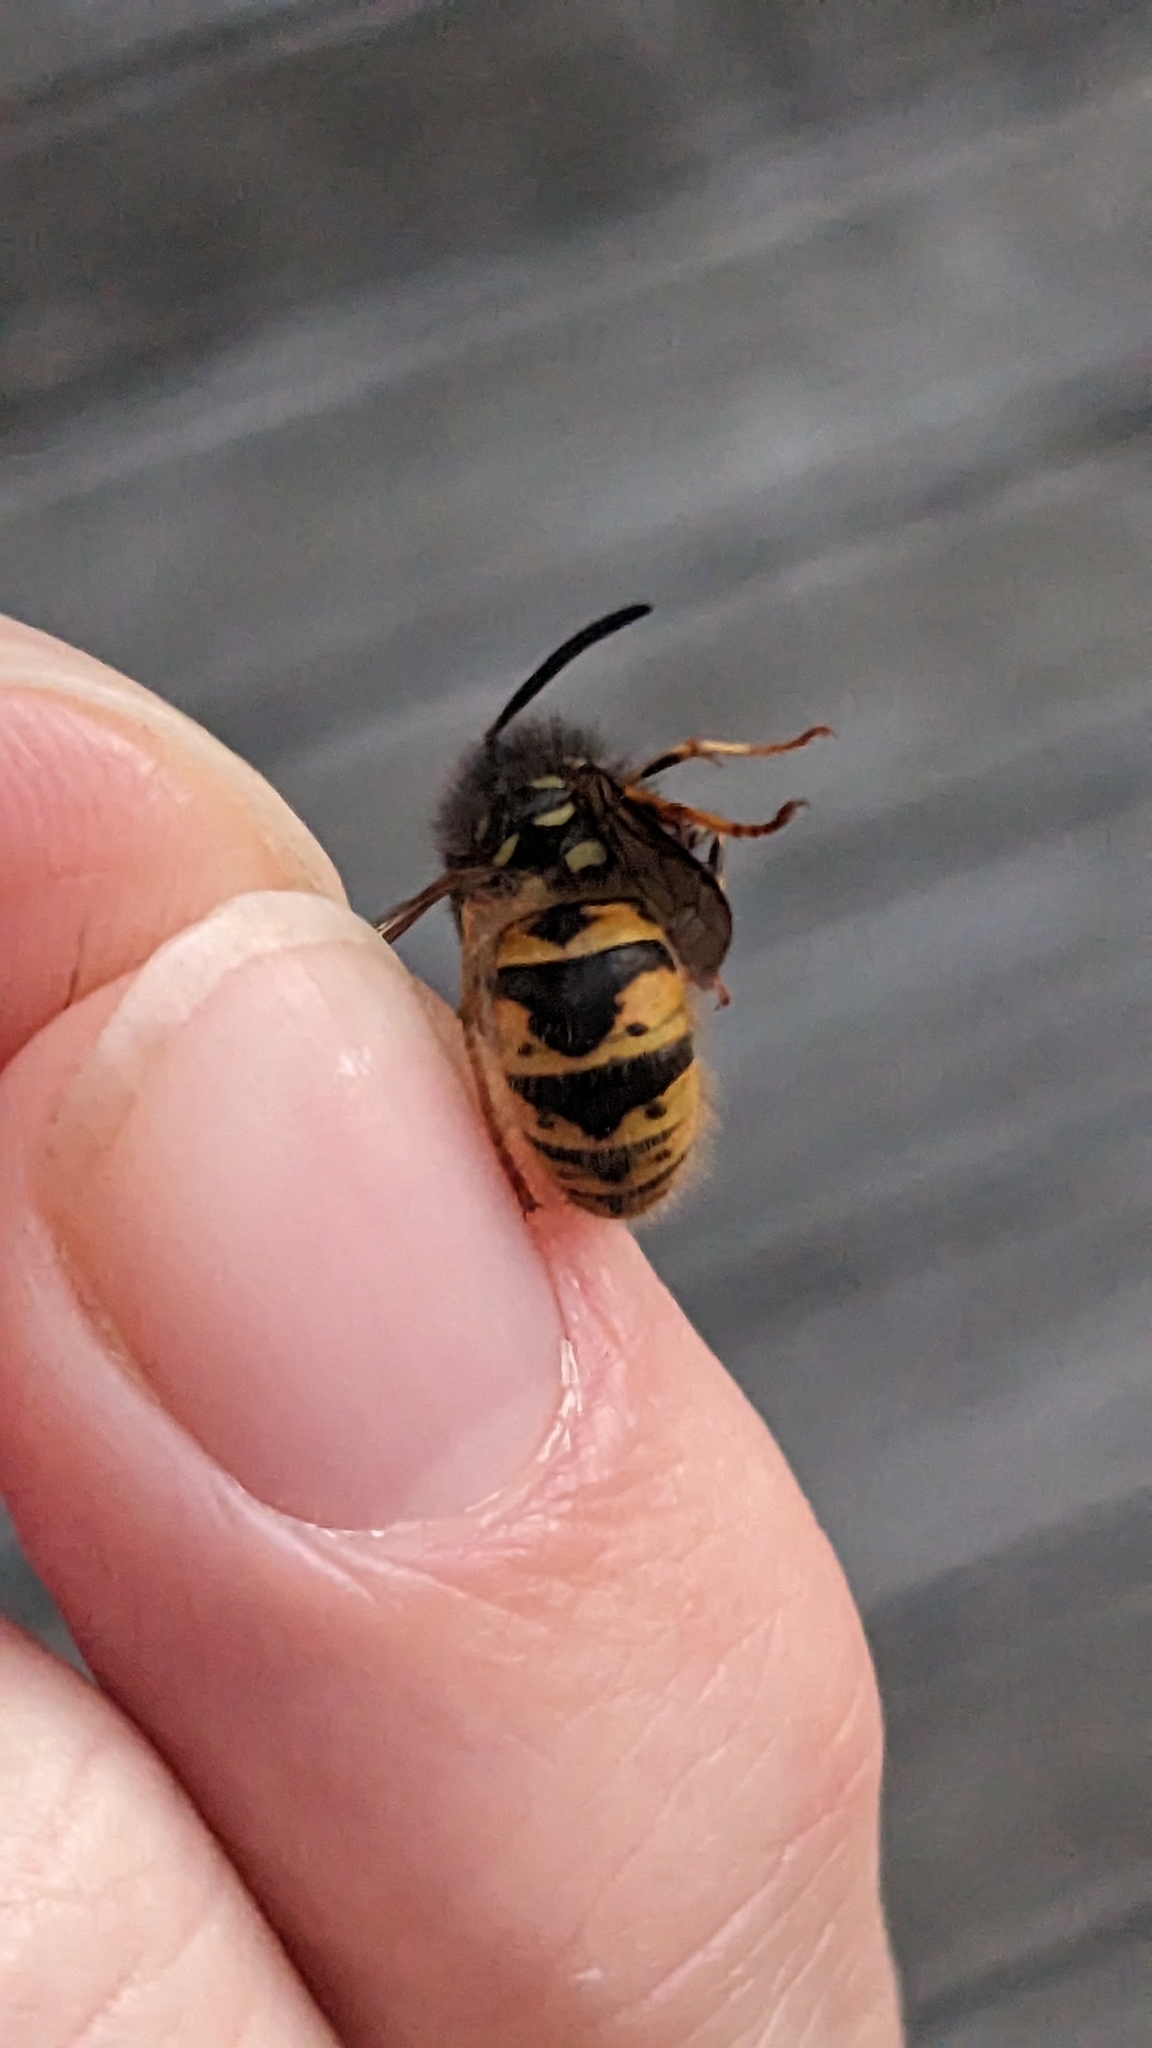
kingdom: Animalia
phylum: Arthropoda
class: Insecta
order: Hymenoptera
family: Vespidae
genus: Vespula
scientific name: Vespula vulgaris
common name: Common wasp
